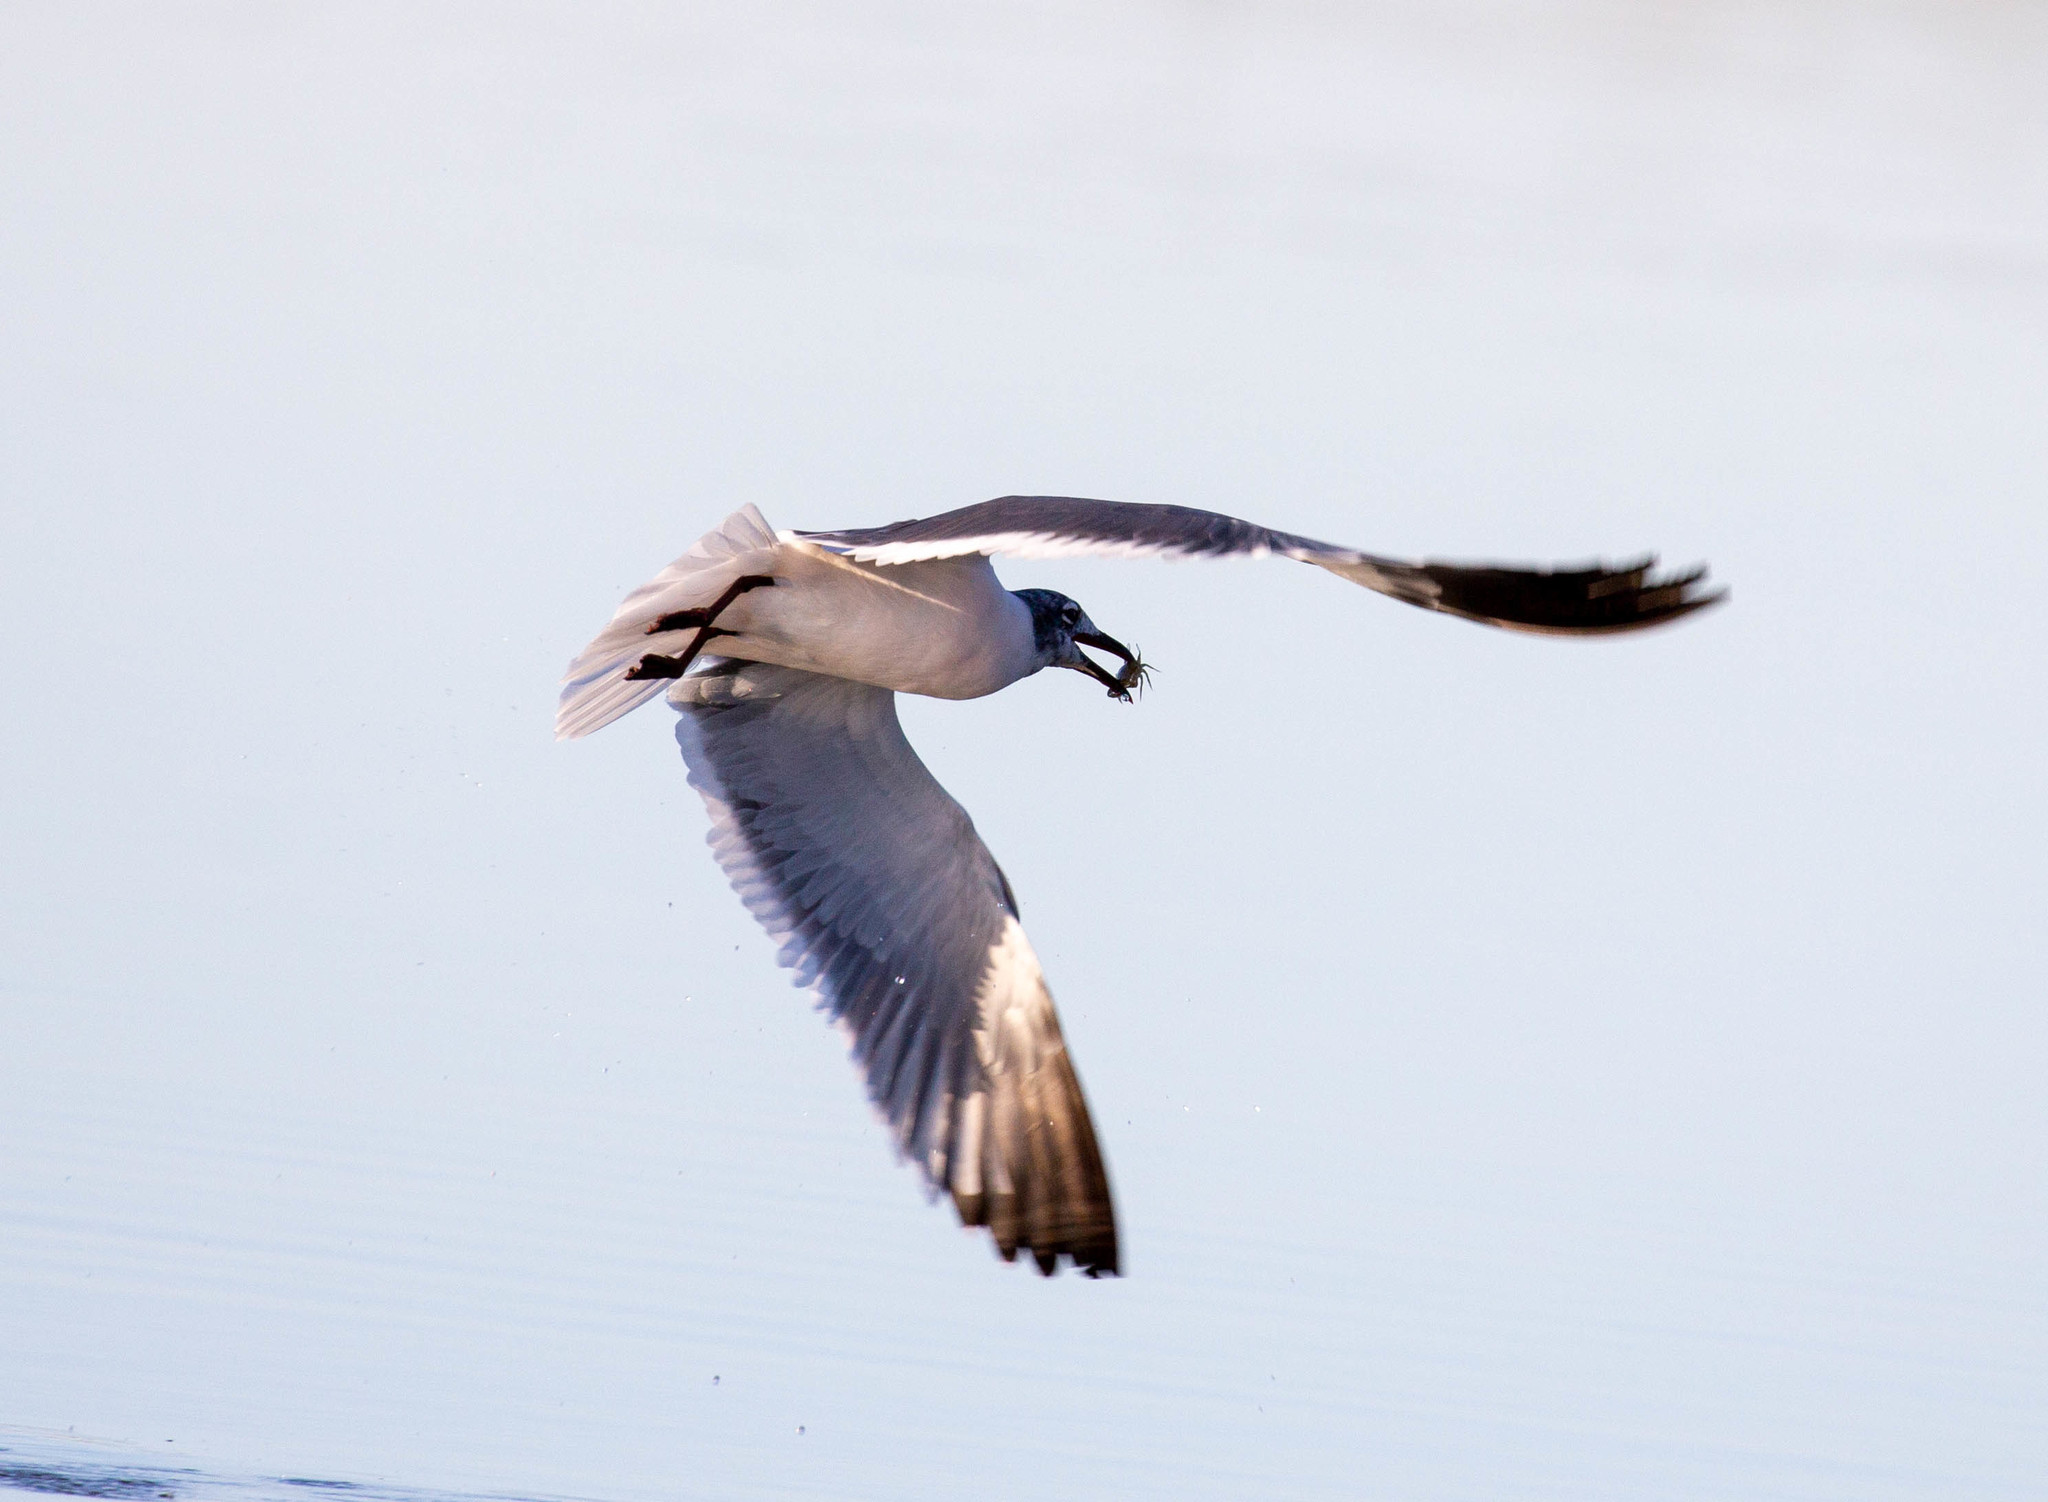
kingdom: Animalia
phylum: Chordata
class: Aves
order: Charadriiformes
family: Laridae
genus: Leucophaeus
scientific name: Leucophaeus atricilla
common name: Laughing gull
